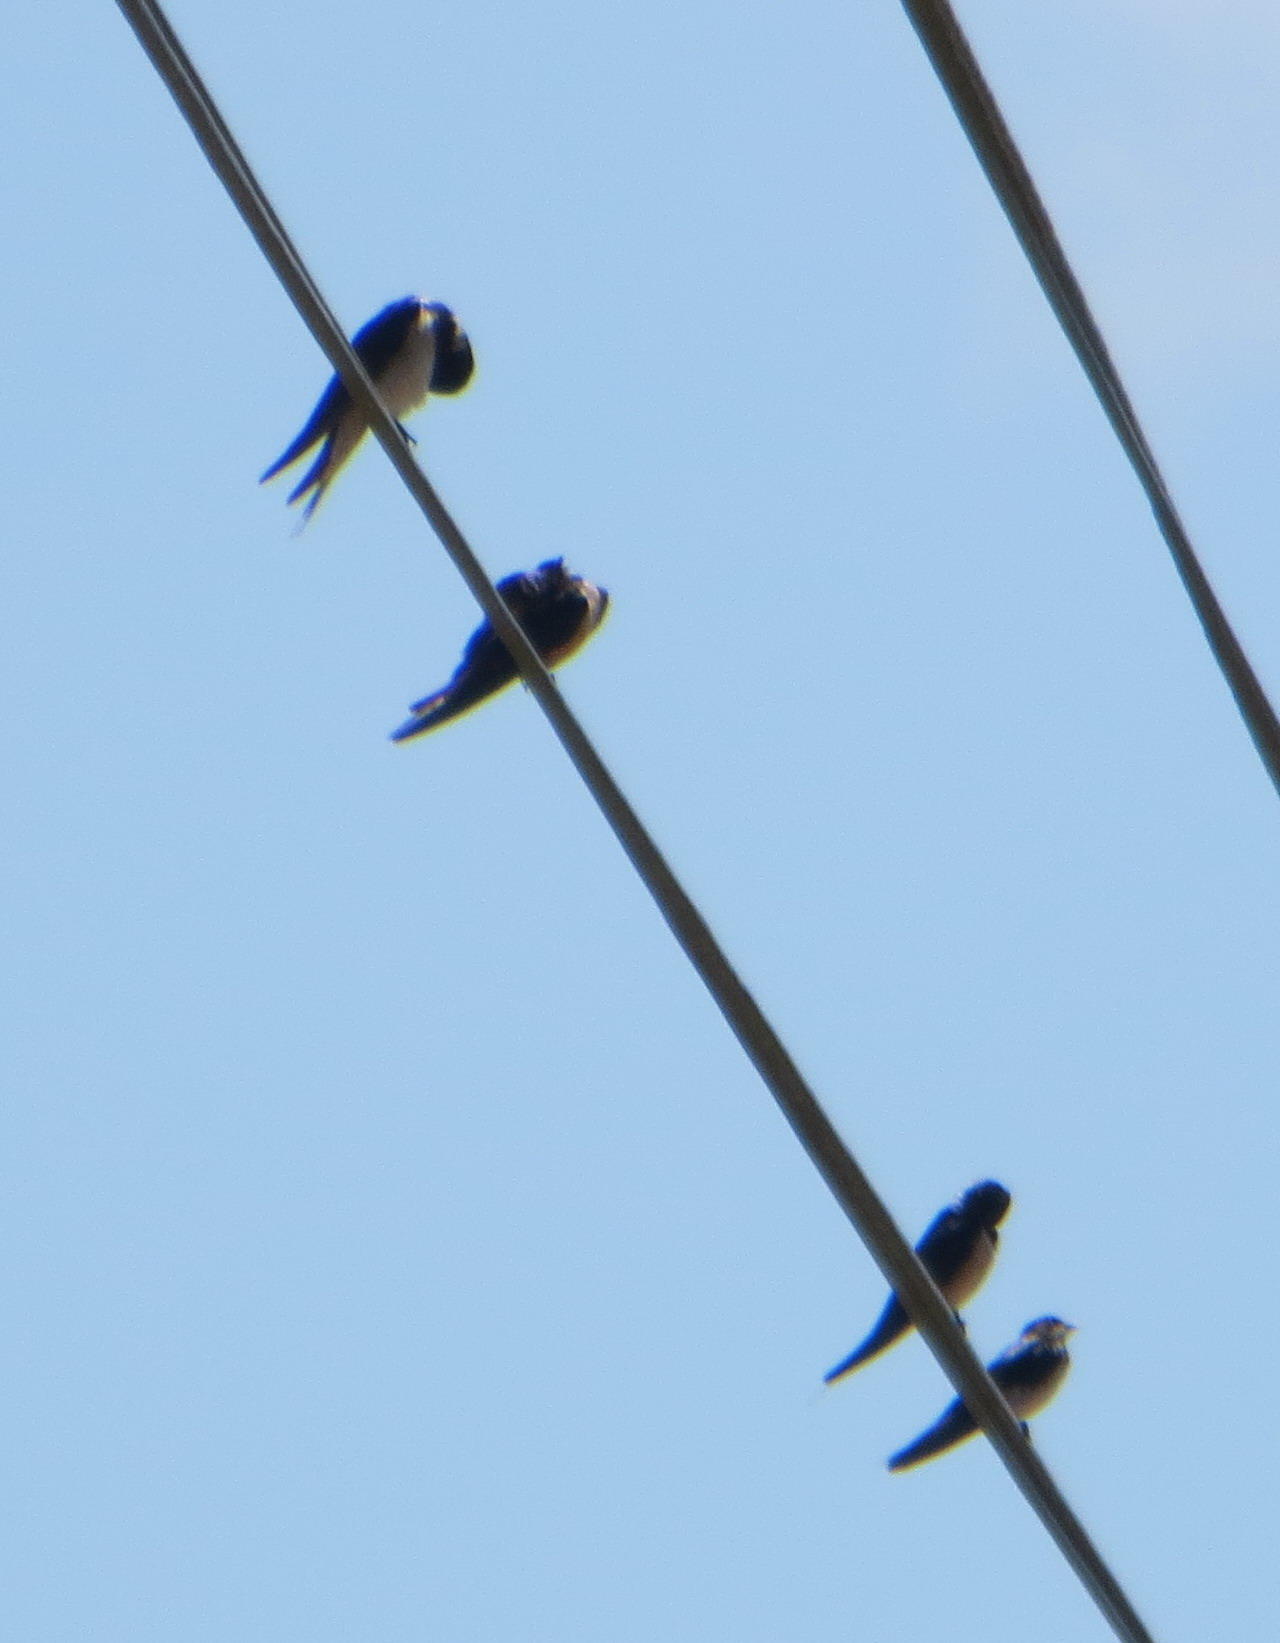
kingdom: Animalia
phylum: Chordata
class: Aves
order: Passeriformes
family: Hirundinidae
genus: Hirundo
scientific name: Hirundo rustica
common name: Barn swallow
